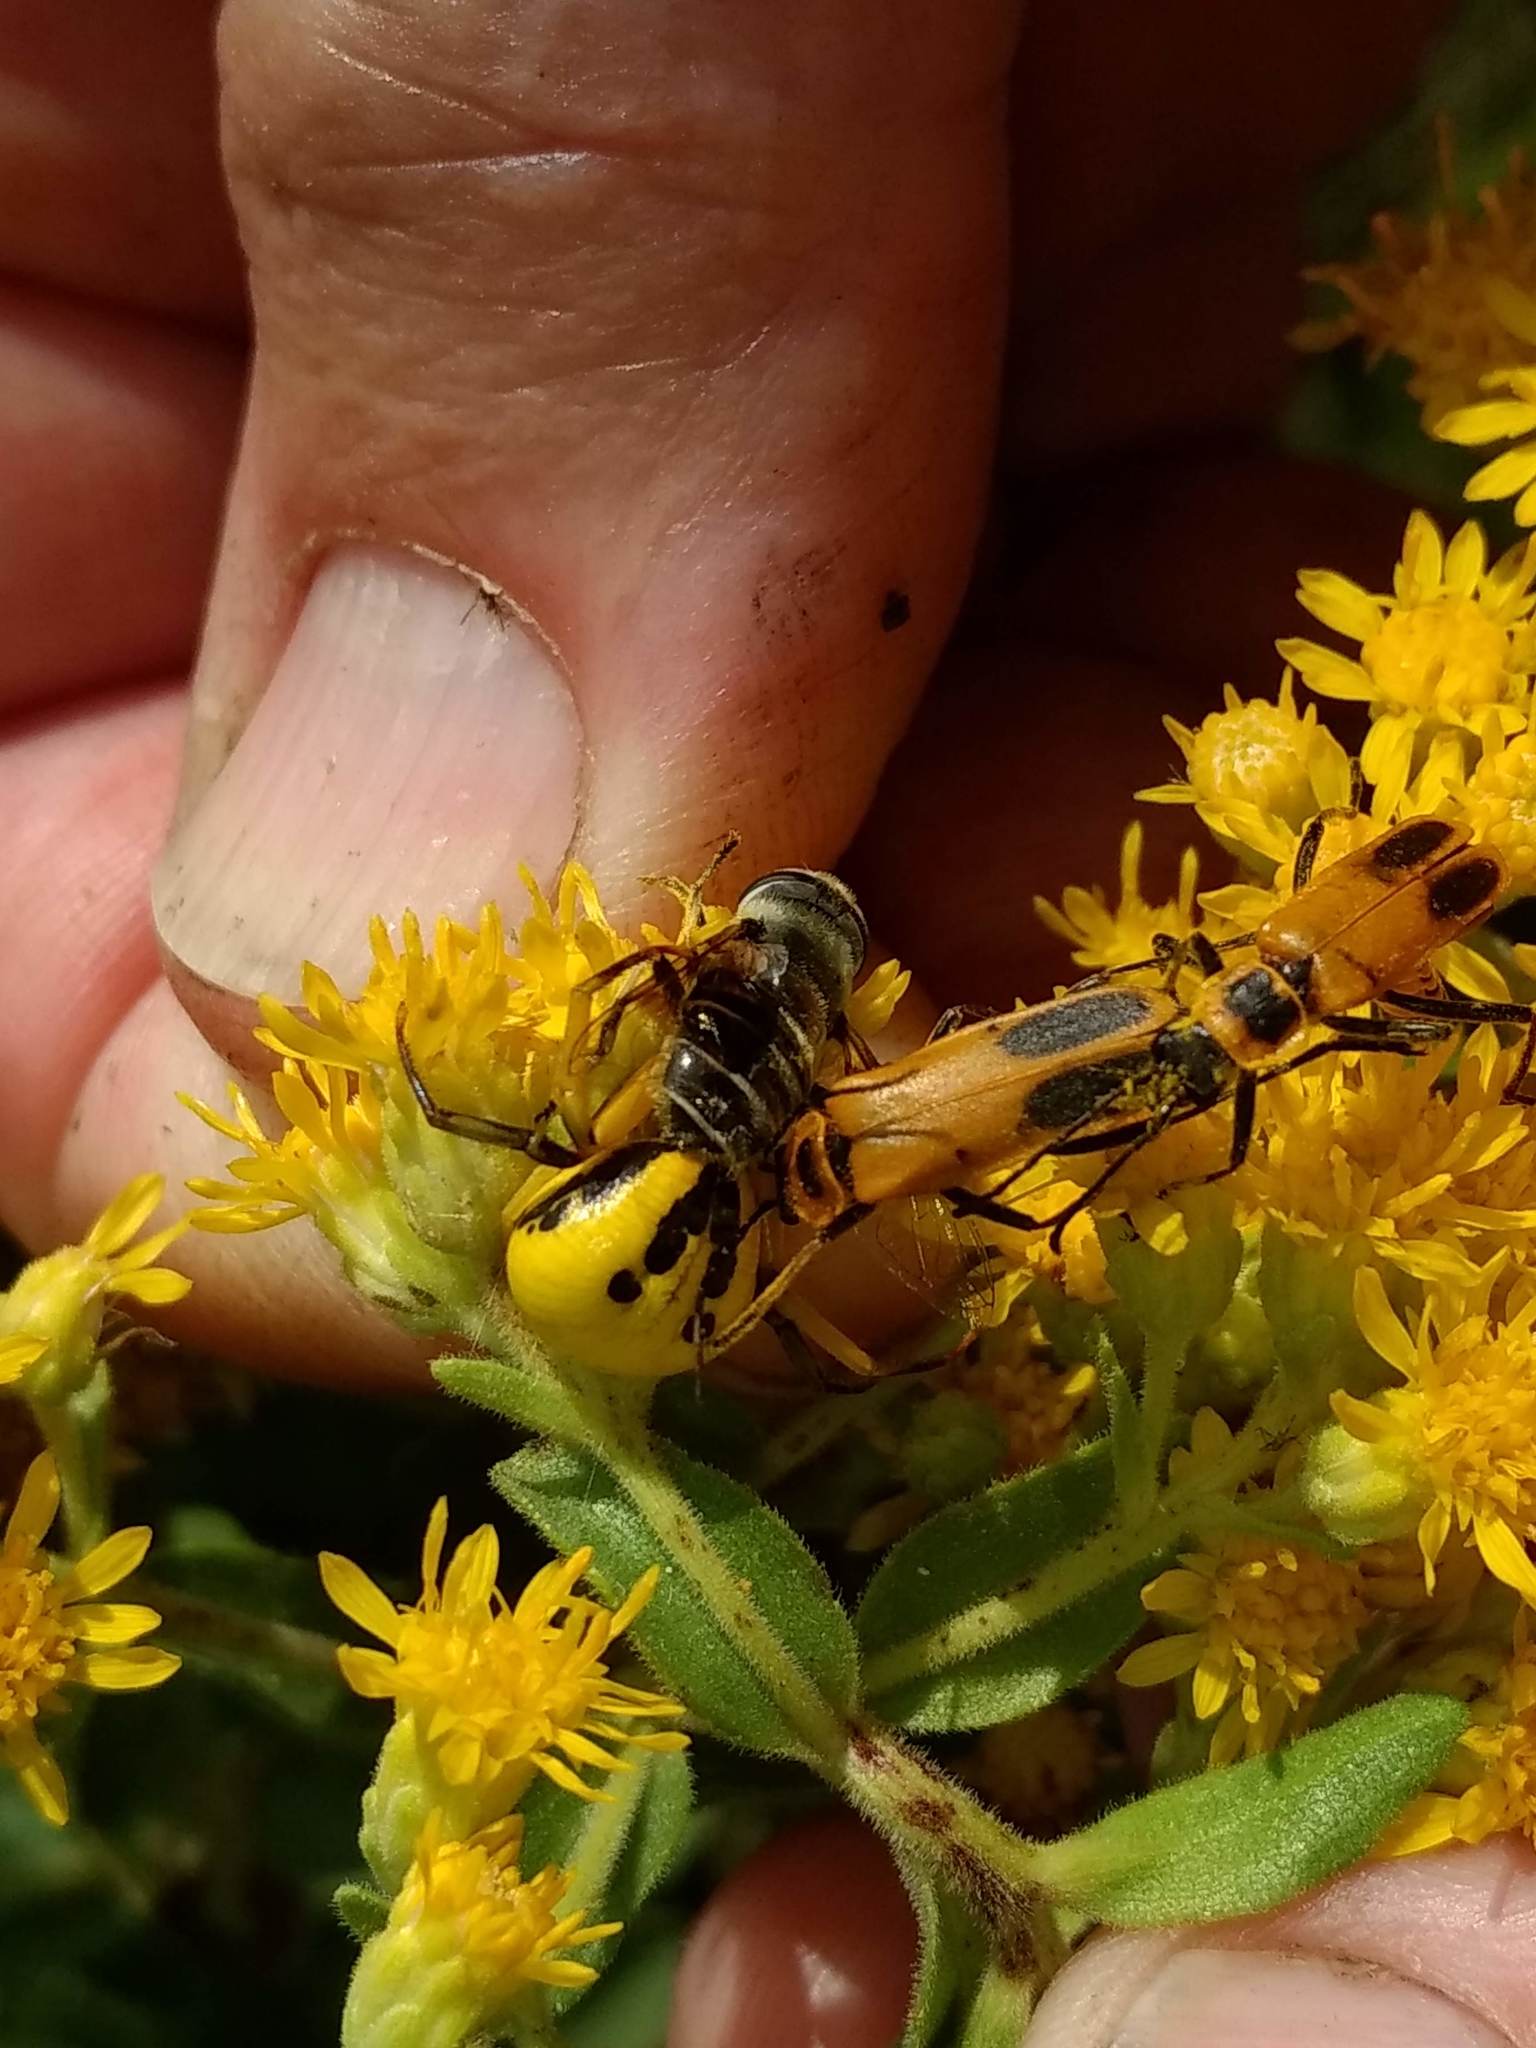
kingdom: Animalia
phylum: Arthropoda
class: Arachnida
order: Araneae
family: Thomisidae
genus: Misumenoides
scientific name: Misumenoides formosipes
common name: White-banded crab spider
